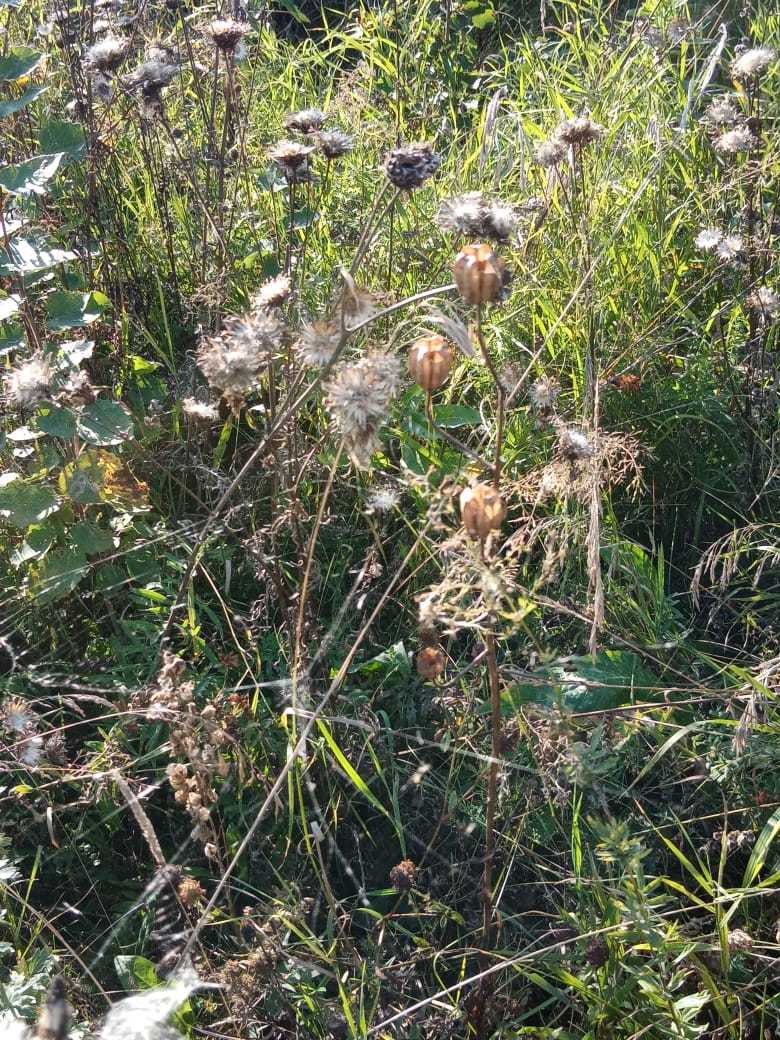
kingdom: Plantae
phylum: Tracheophyta
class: Magnoliopsida
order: Asterales
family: Asteraceae
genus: Centaurea
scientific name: Centaurea scabiosa
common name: Greater knapweed
